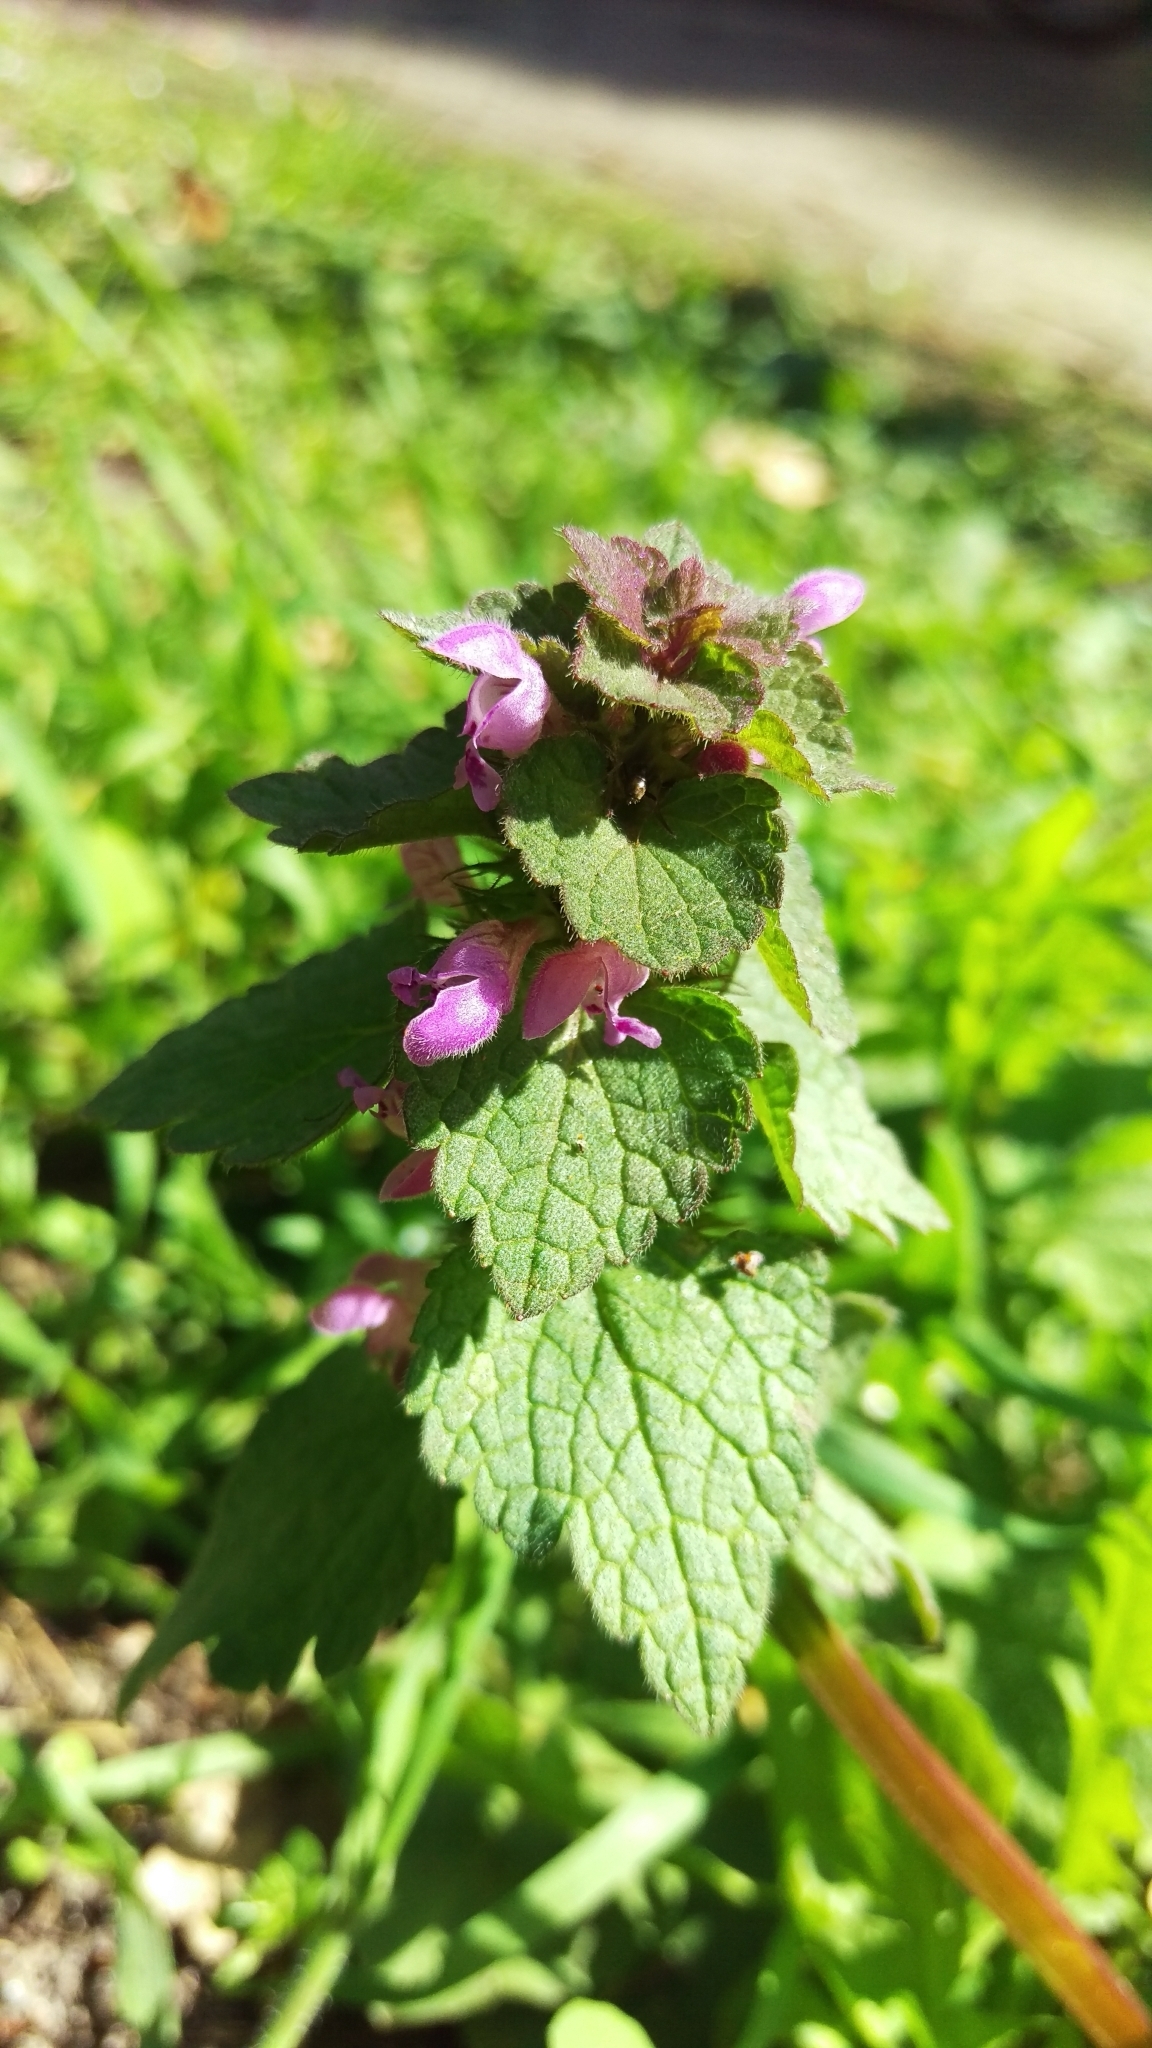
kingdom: Plantae
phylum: Tracheophyta
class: Magnoliopsida
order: Lamiales
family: Lamiaceae
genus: Lamium
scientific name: Lamium purpureum
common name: Red dead-nettle
